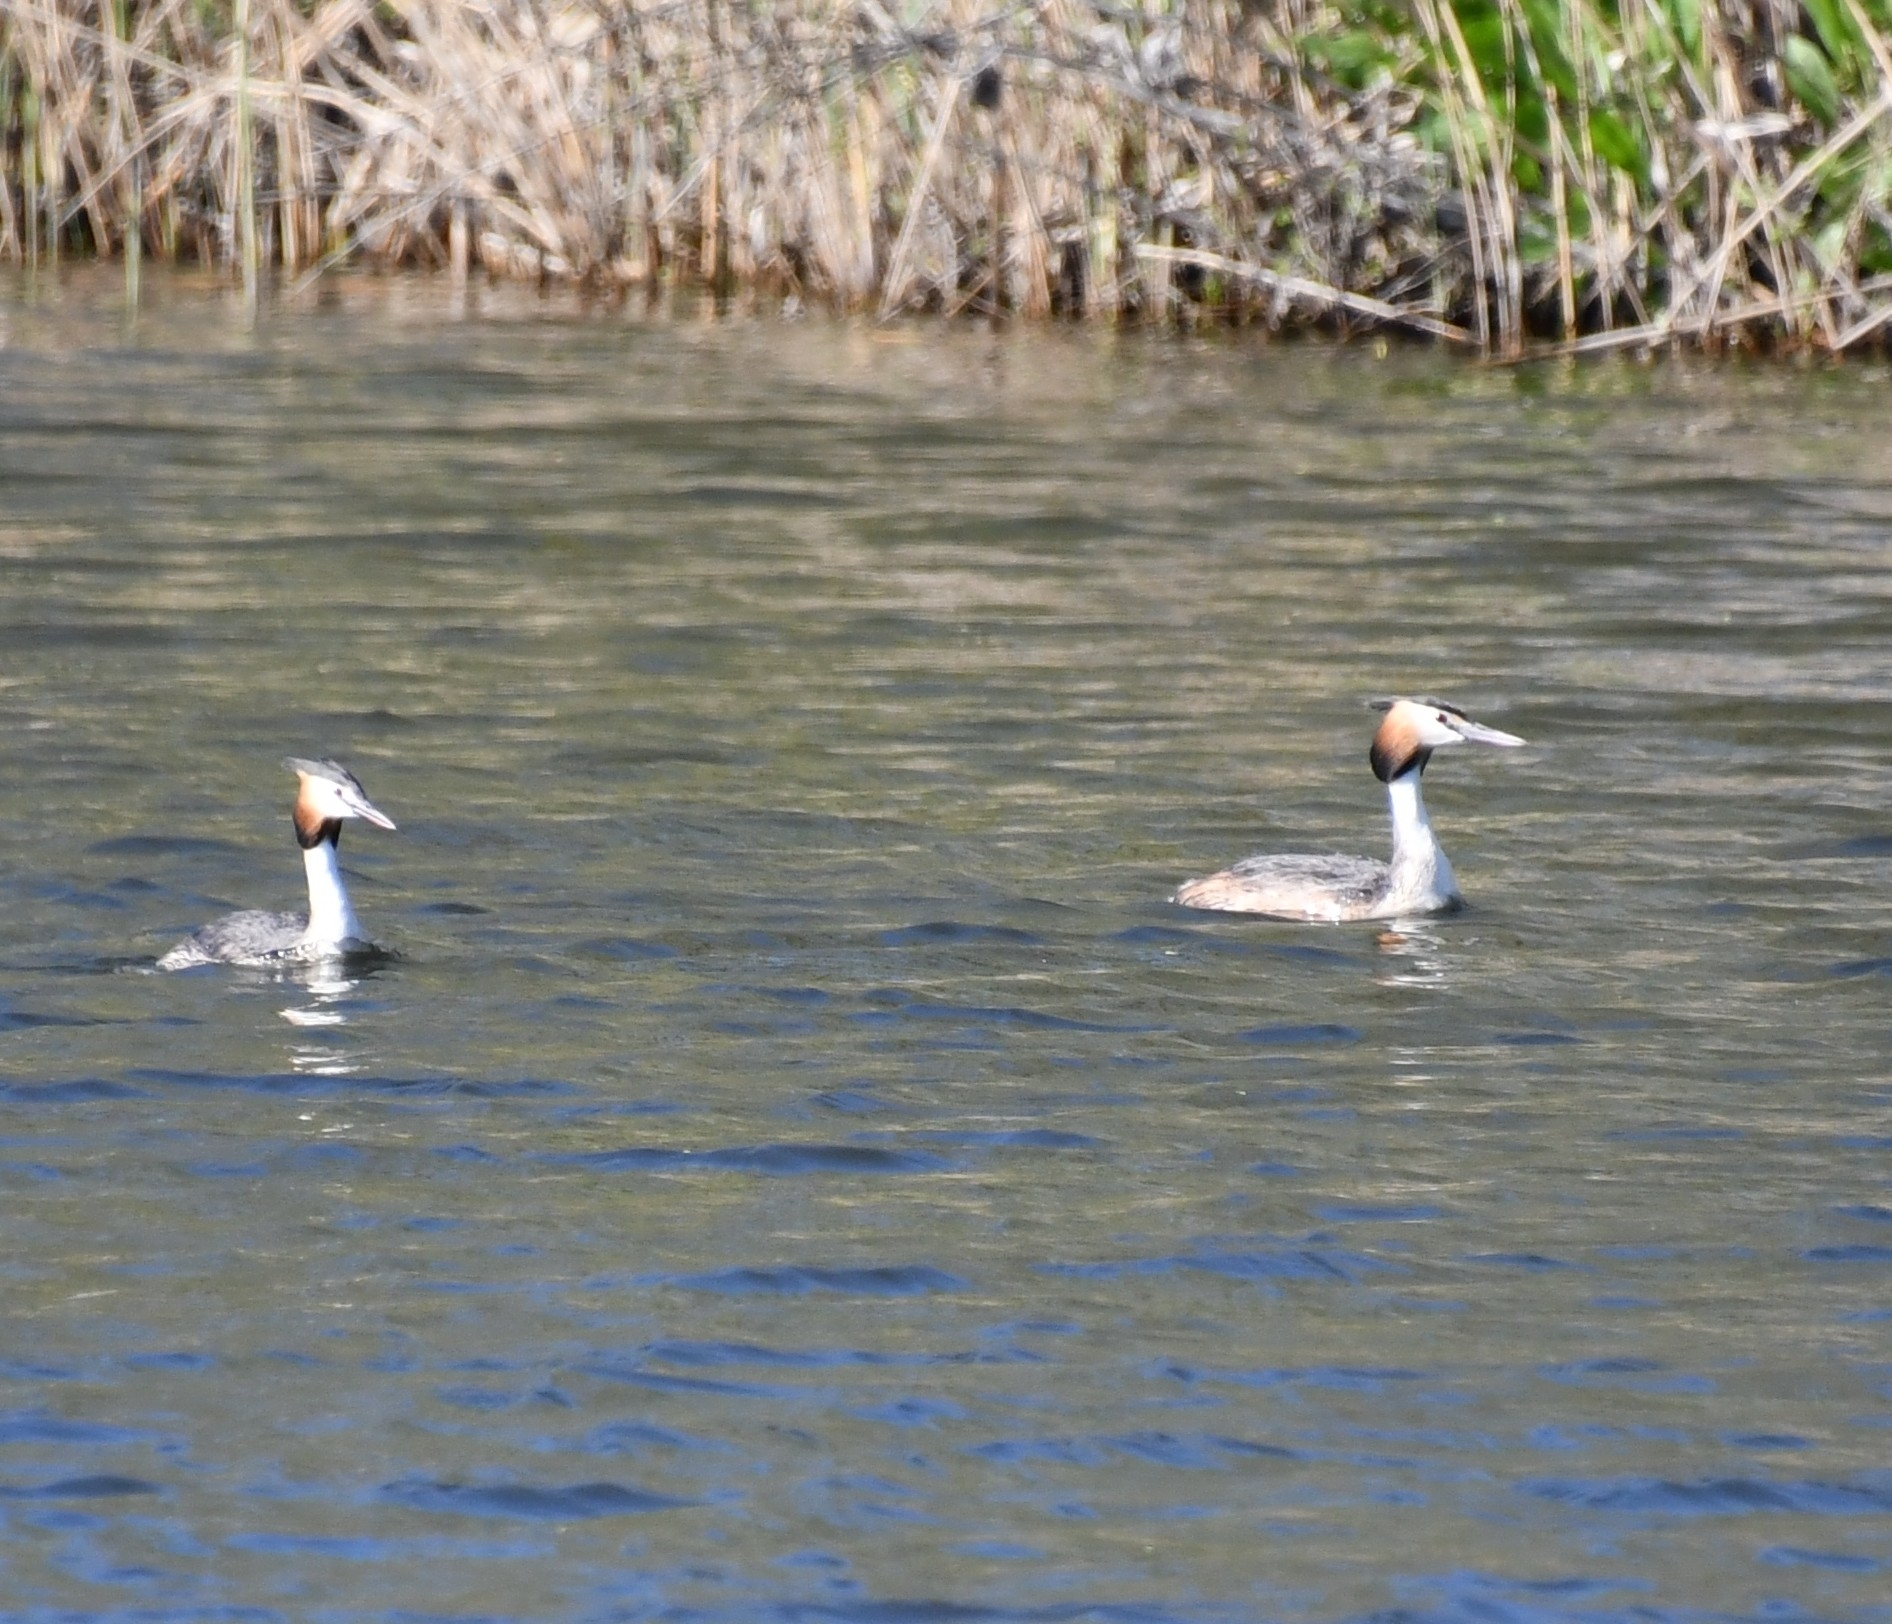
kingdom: Animalia
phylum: Chordata
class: Aves
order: Podicipediformes
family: Podicipedidae
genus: Podiceps
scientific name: Podiceps cristatus
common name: Great crested grebe
